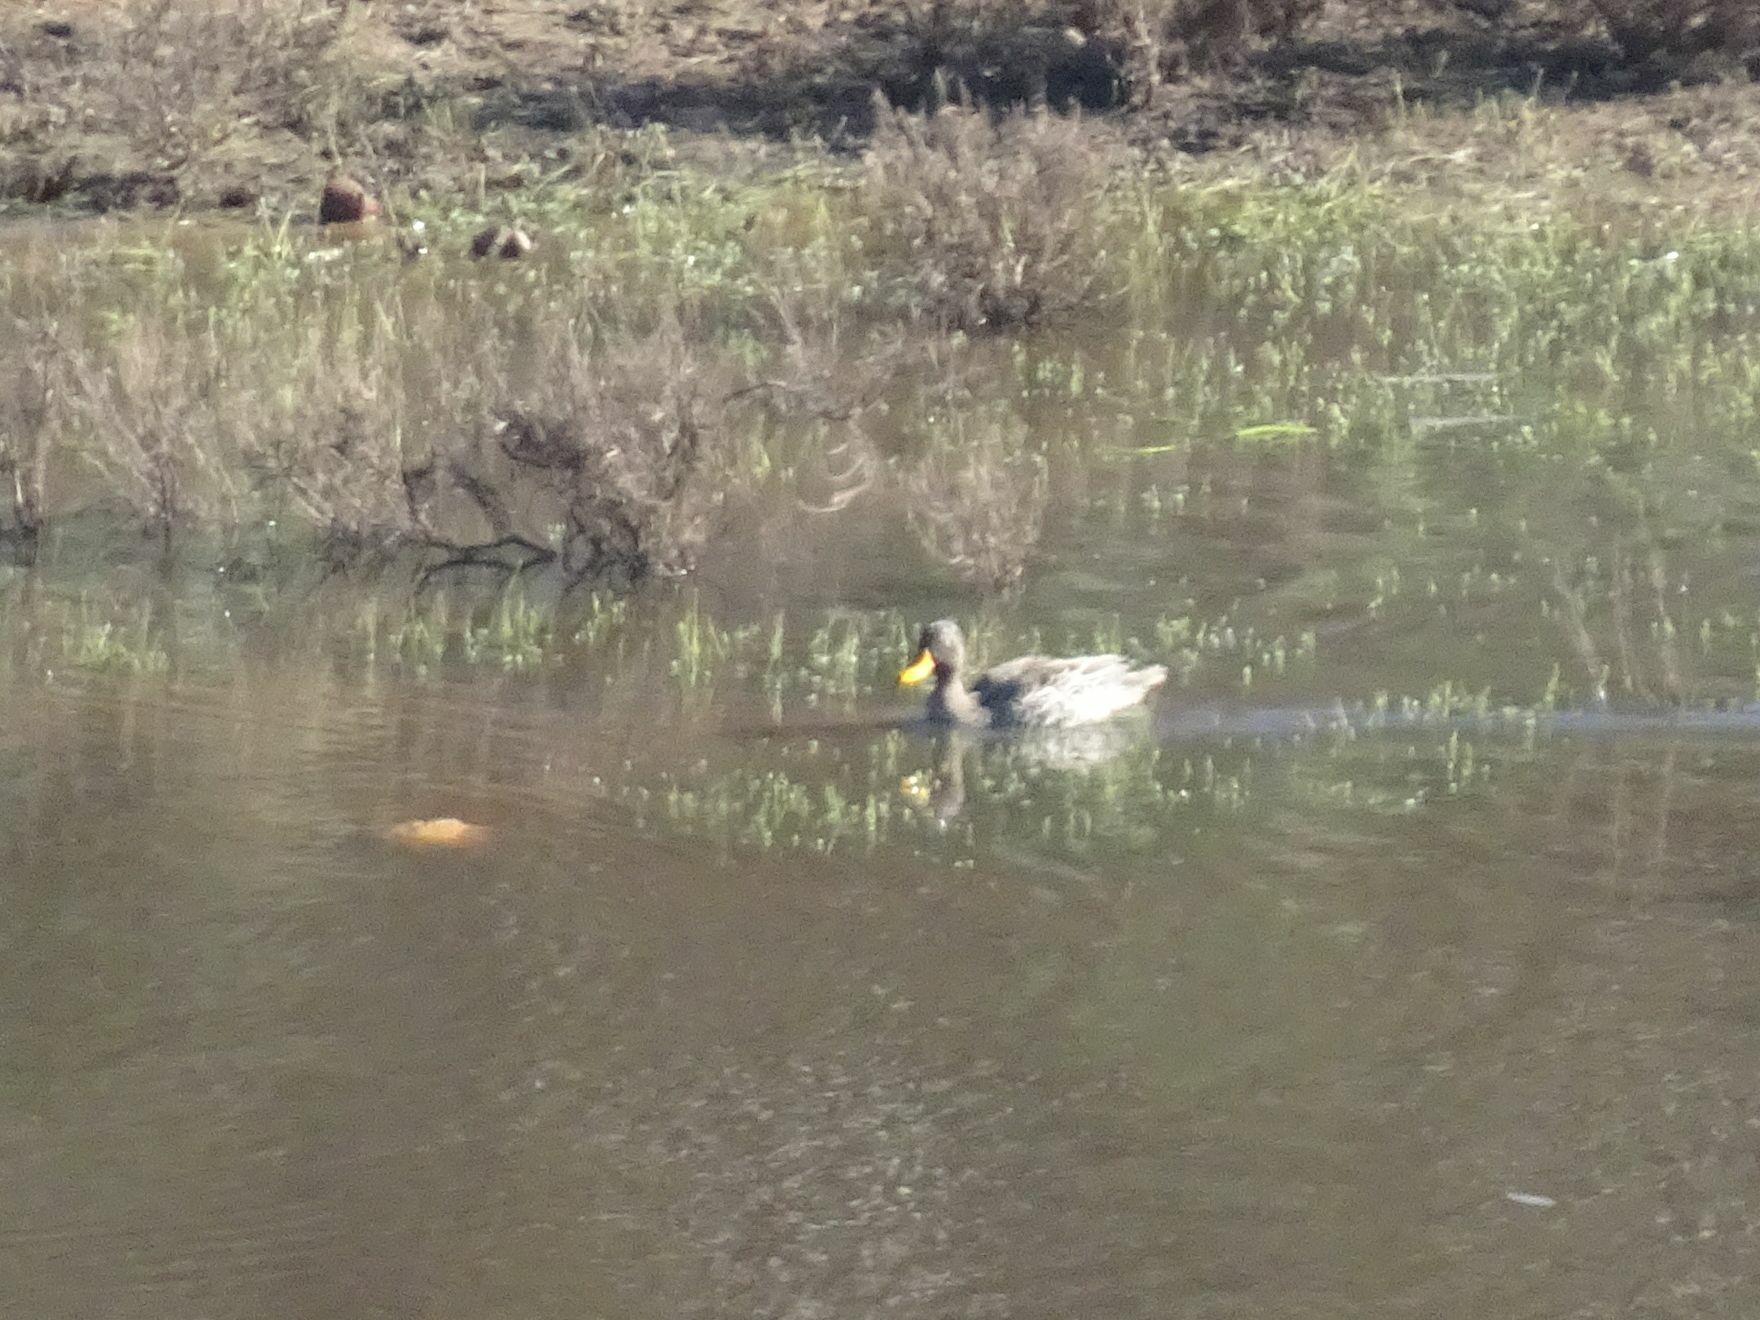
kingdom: Animalia
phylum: Chordata
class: Aves
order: Anseriformes
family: Anatidae
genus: Anas
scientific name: Anas undulata
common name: Yellow-billed duck
